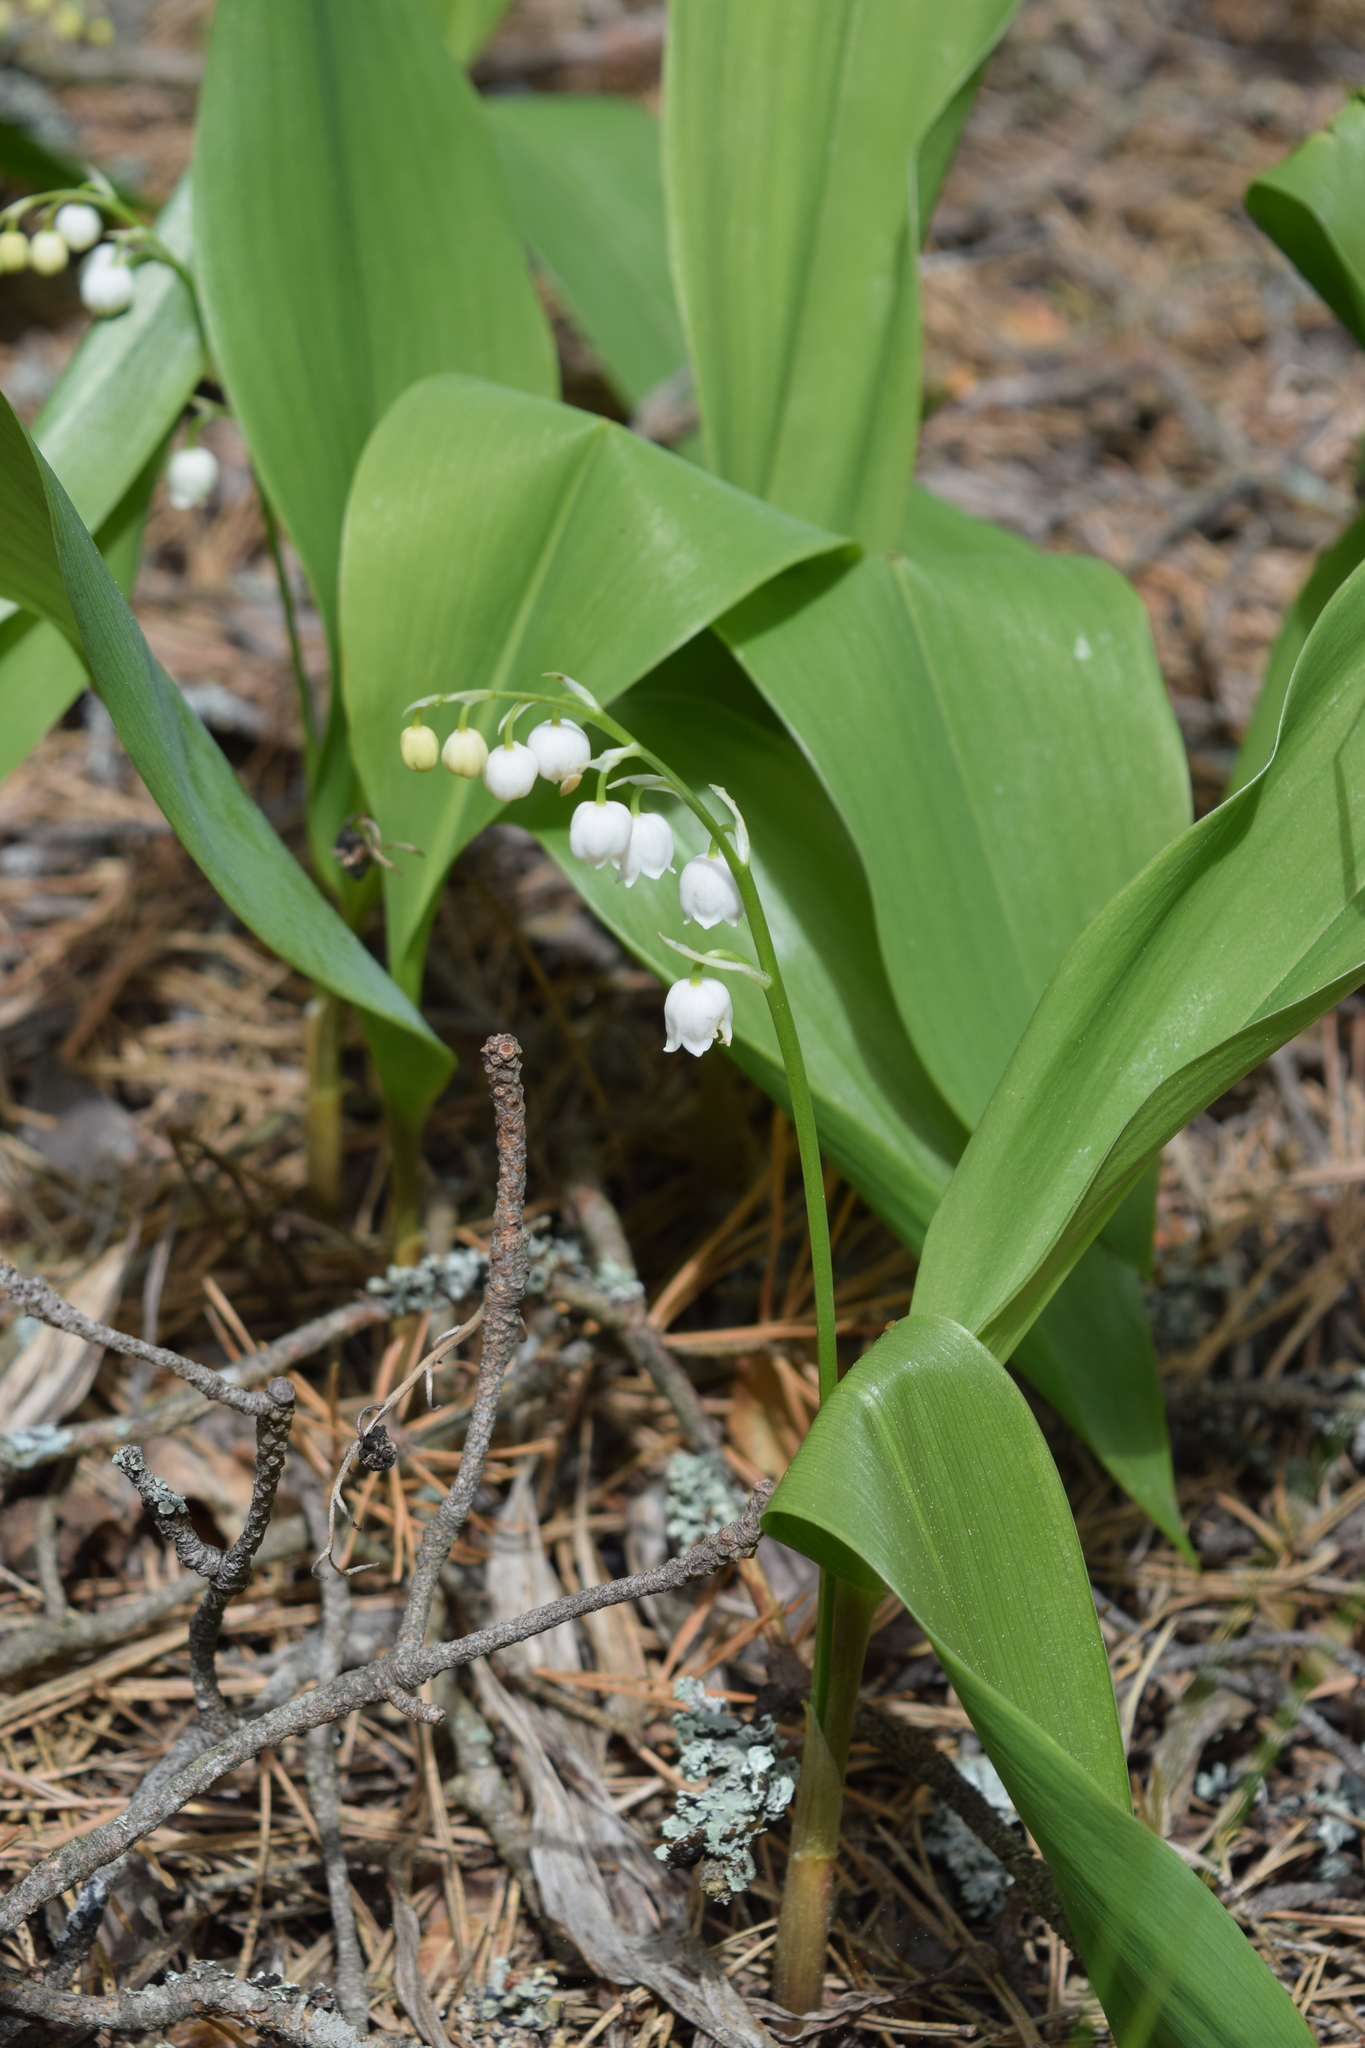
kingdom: Plantae
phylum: Tracheophyta
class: Liliopsida
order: Asparagales
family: Asparagaceae
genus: Convallaria
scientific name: Convallaria majalis
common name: Lily-of-the-valley
